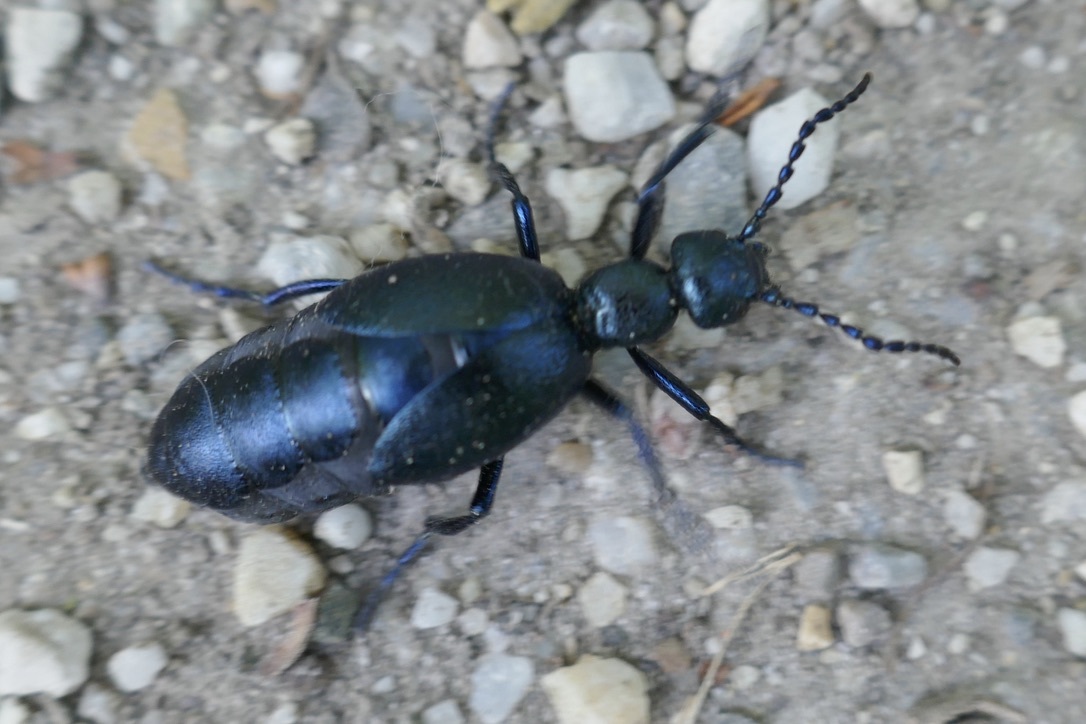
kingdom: Animalia
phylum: Arthropoda
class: Insecta
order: Coleoptera
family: Meloidae
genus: Meloe
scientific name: Meloe violaceus
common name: Violet oil-beetle
